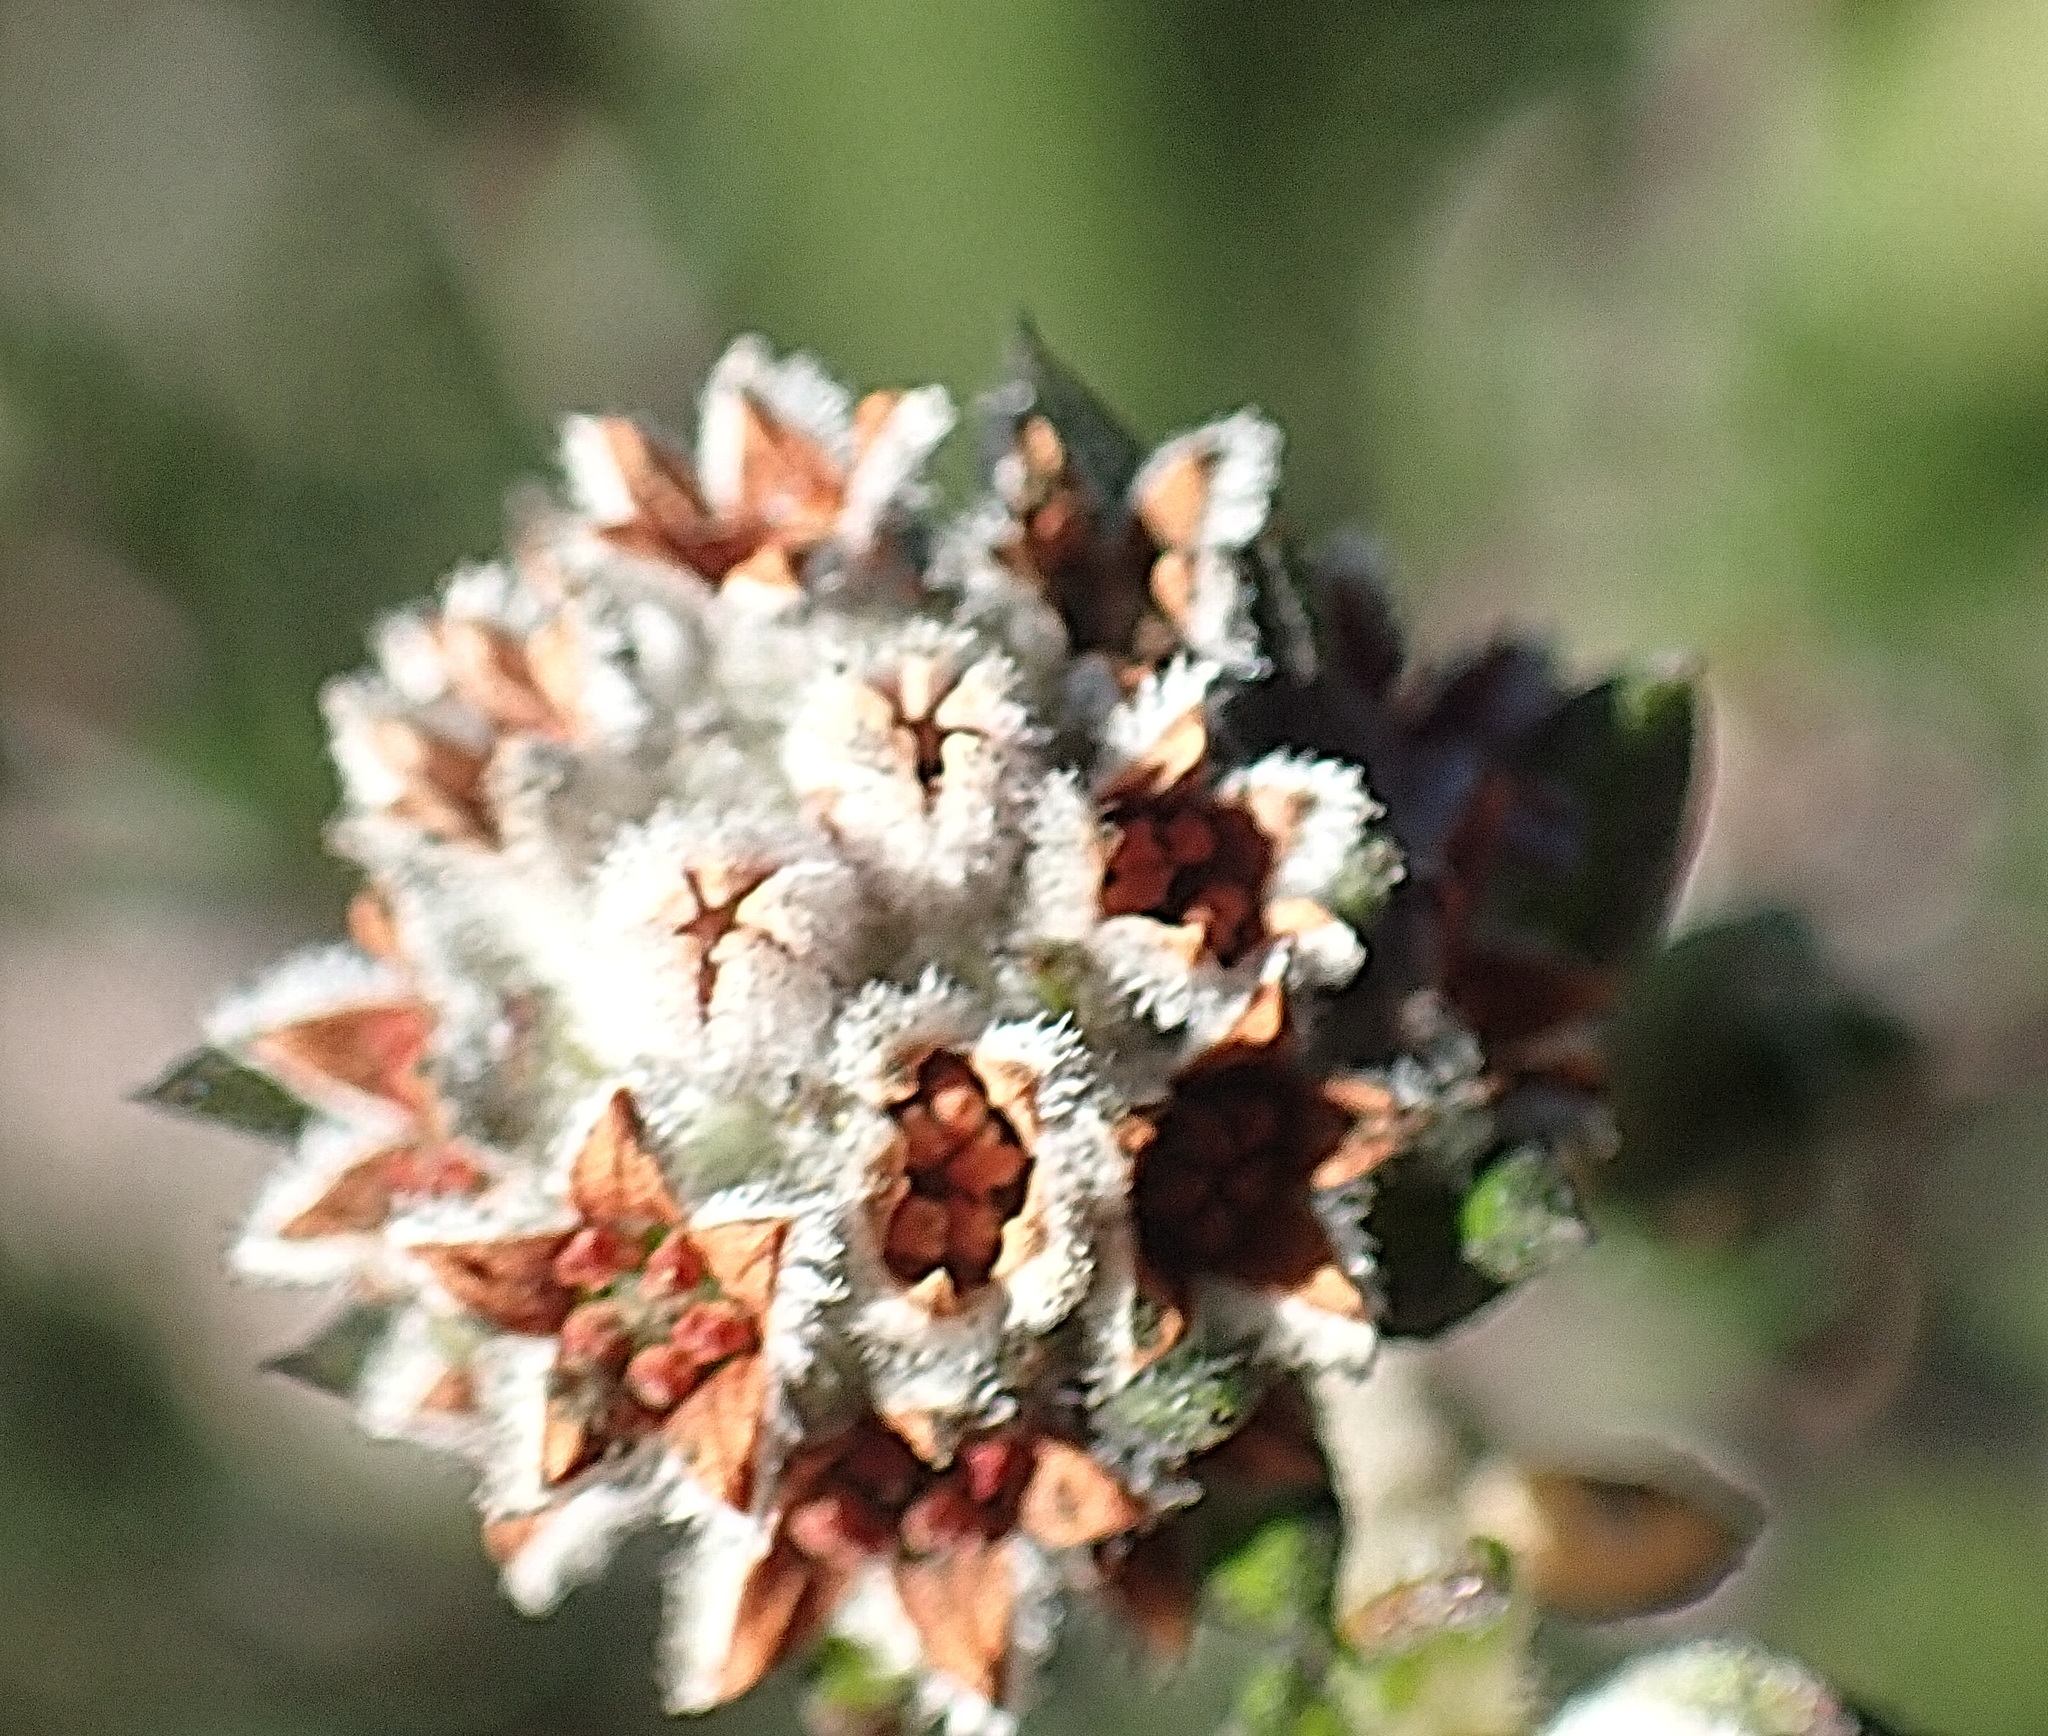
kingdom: Plantae
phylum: Tracheophyta
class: Magnoliopsida
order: Rosales
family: Rhamnaceae
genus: Phylica
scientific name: Phylica purpurea
